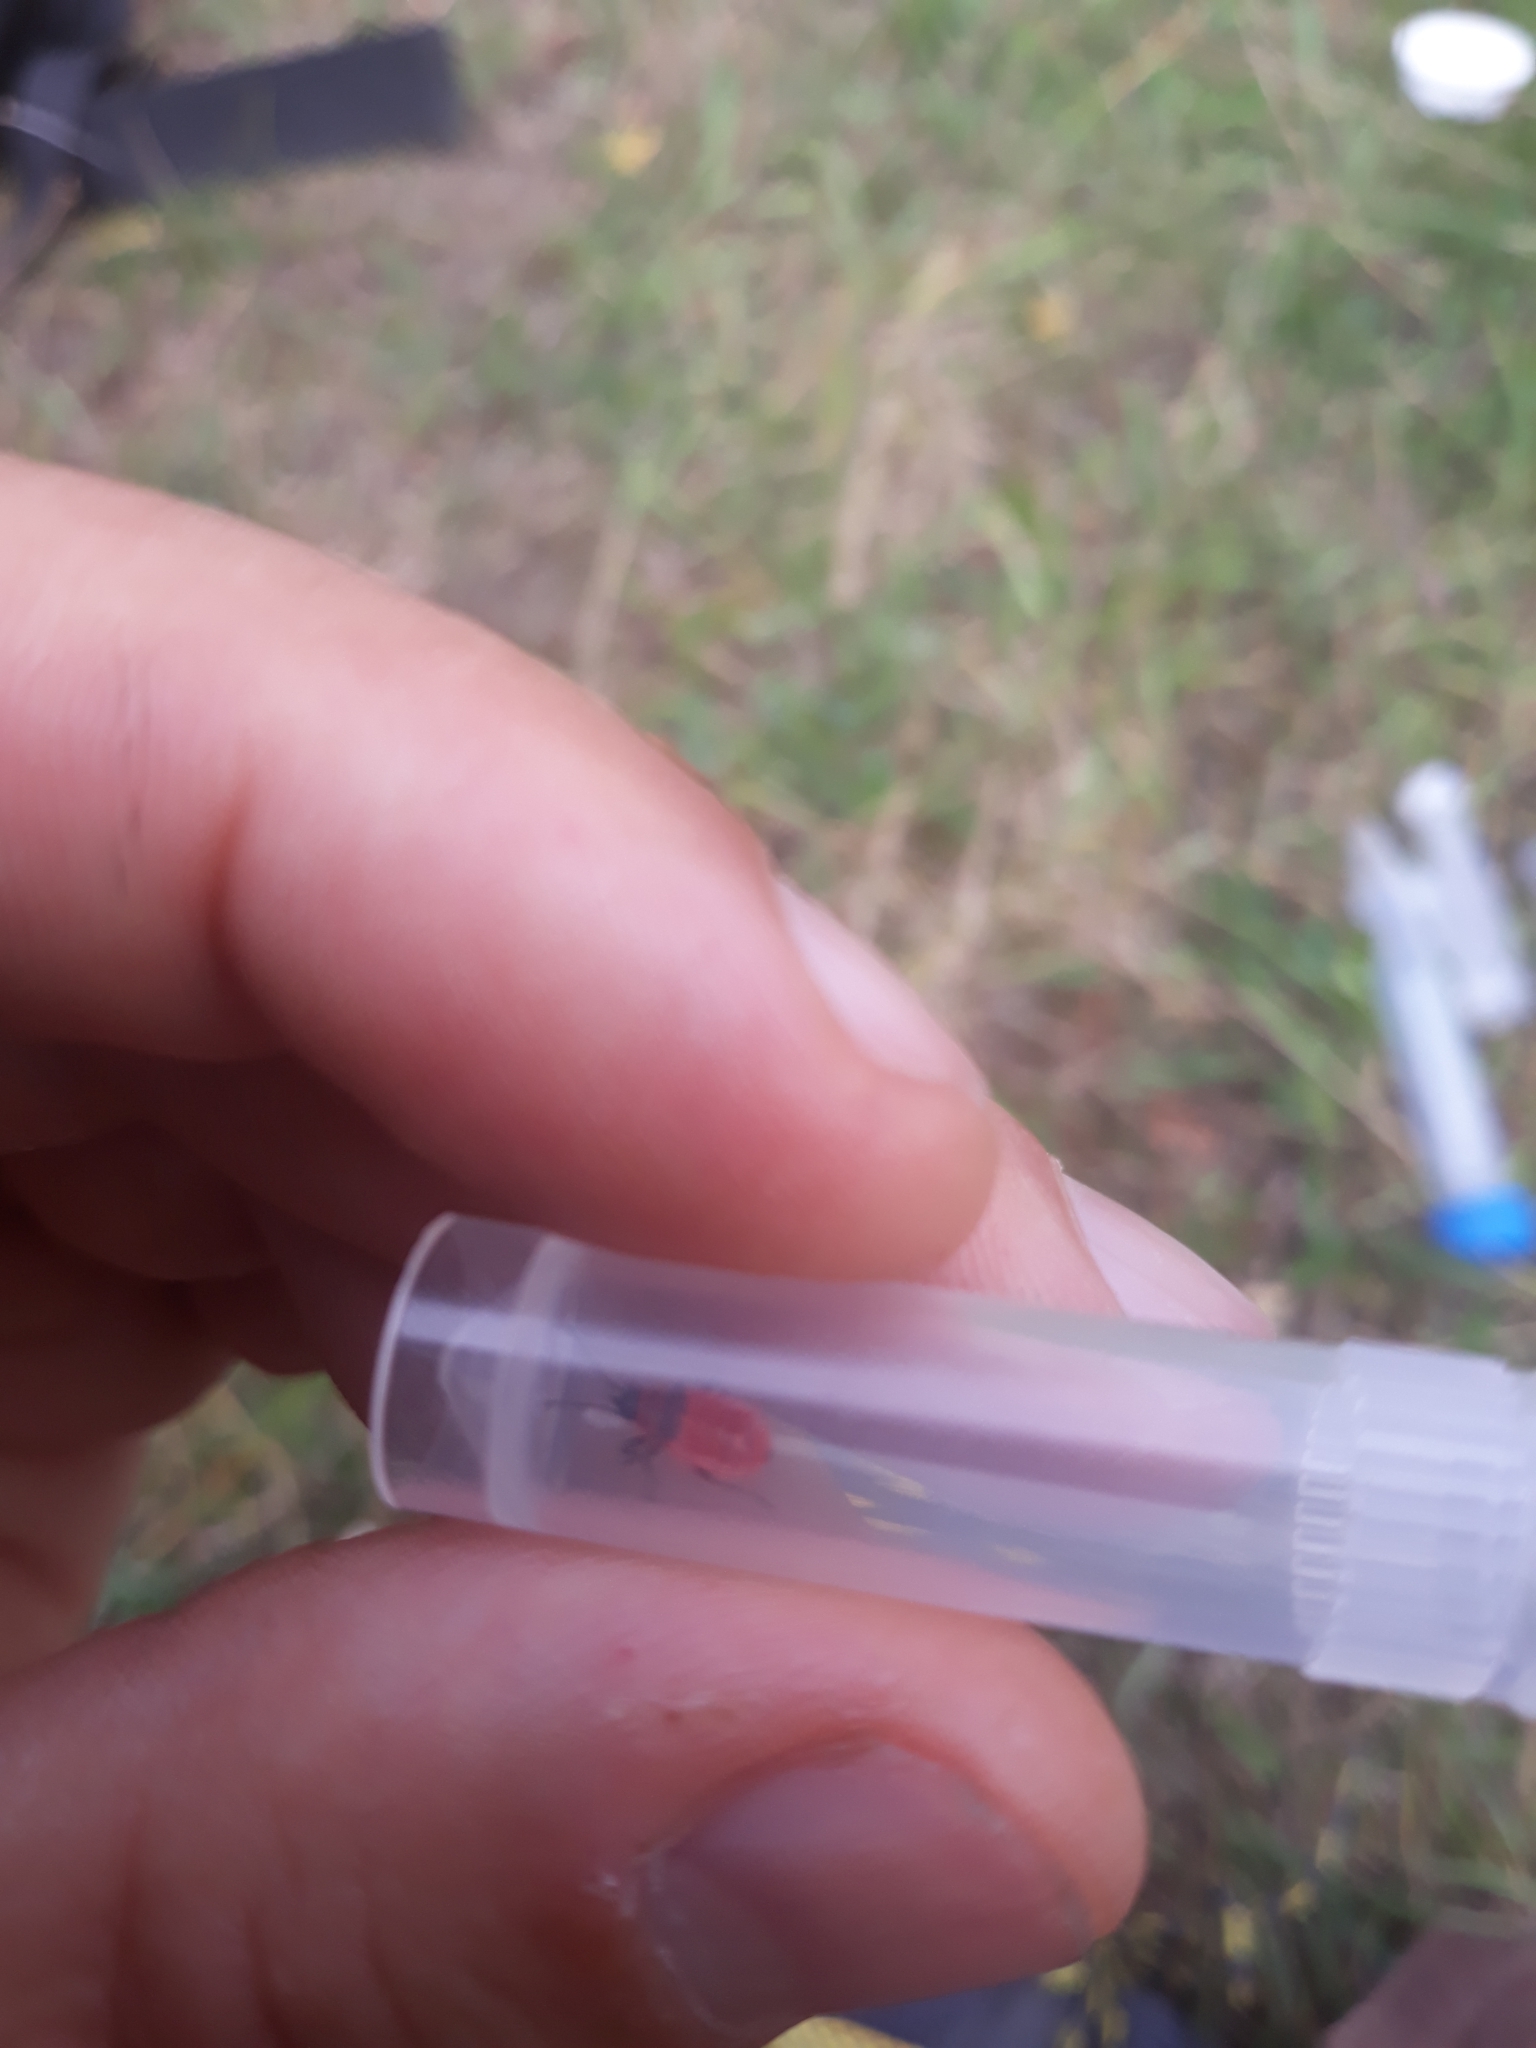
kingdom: Animalia
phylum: Arthropoda
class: Insecta
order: Hemiptera
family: Pyrrhocoridae
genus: Pyrrhocoris
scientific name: Pyrrhocoris apterus
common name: Firebug
